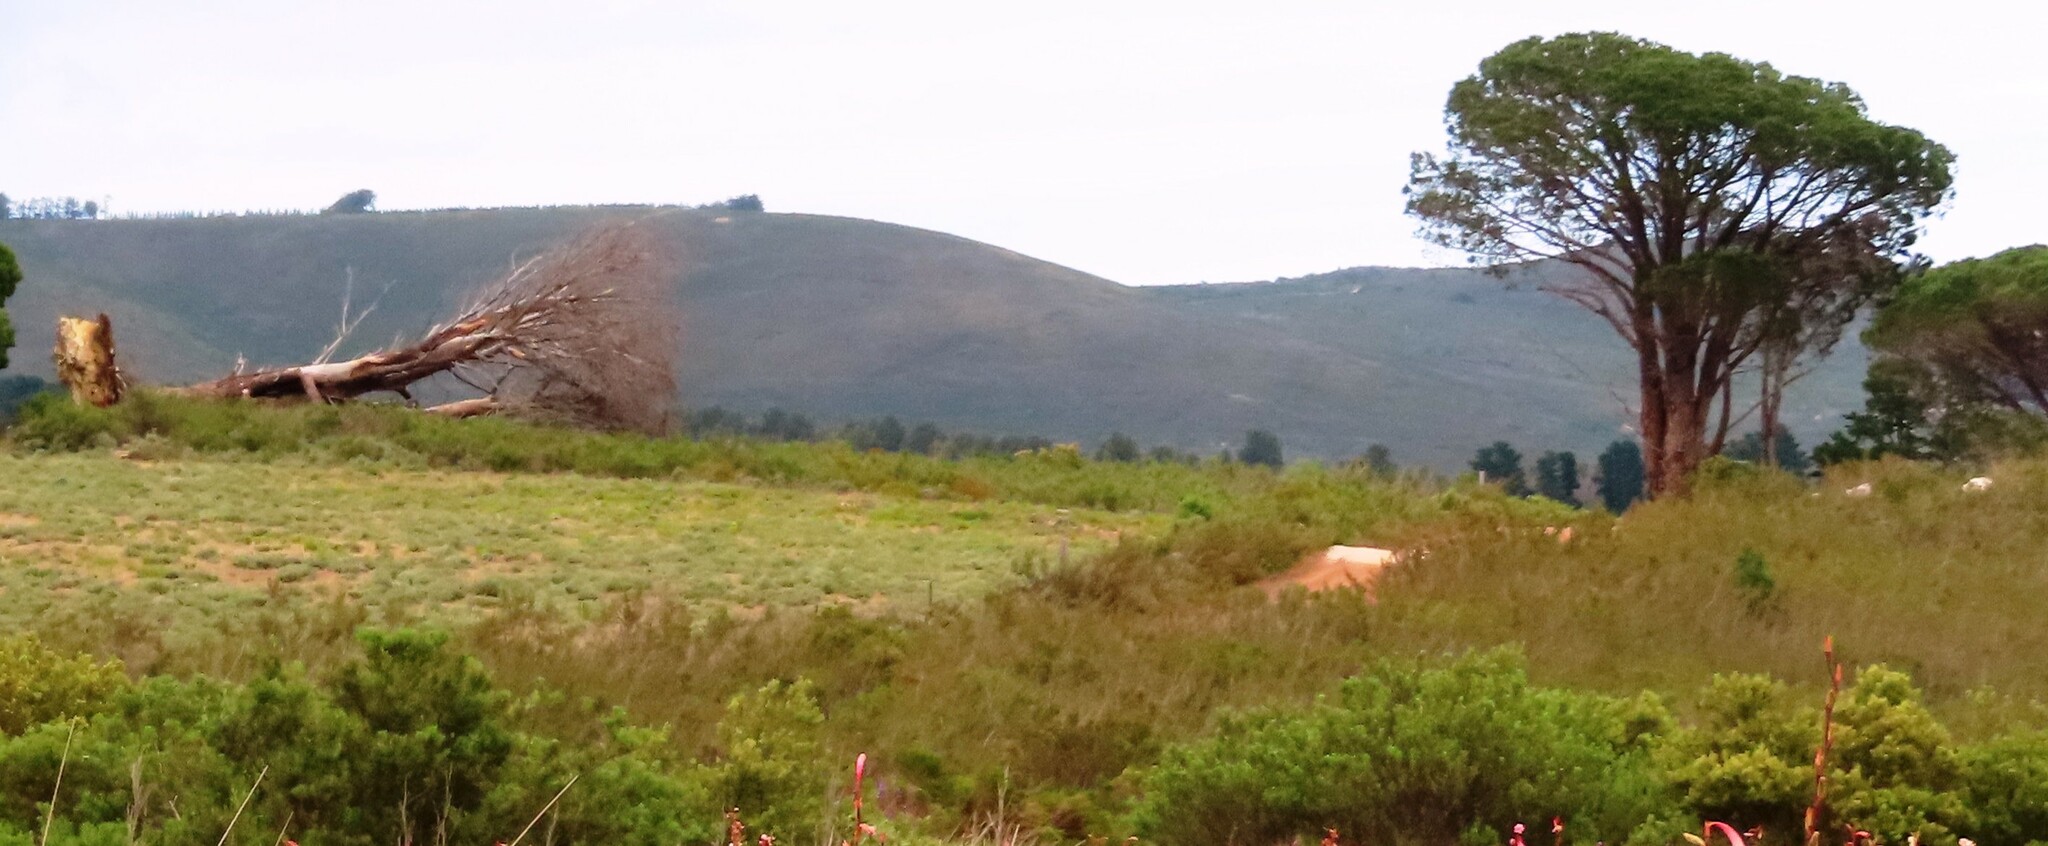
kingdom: Plantae
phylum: Tracheophyta
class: Pinopsida
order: Pinales
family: Pinaceae
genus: Pinus
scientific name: Pinus pinea
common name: Italian stone pine
